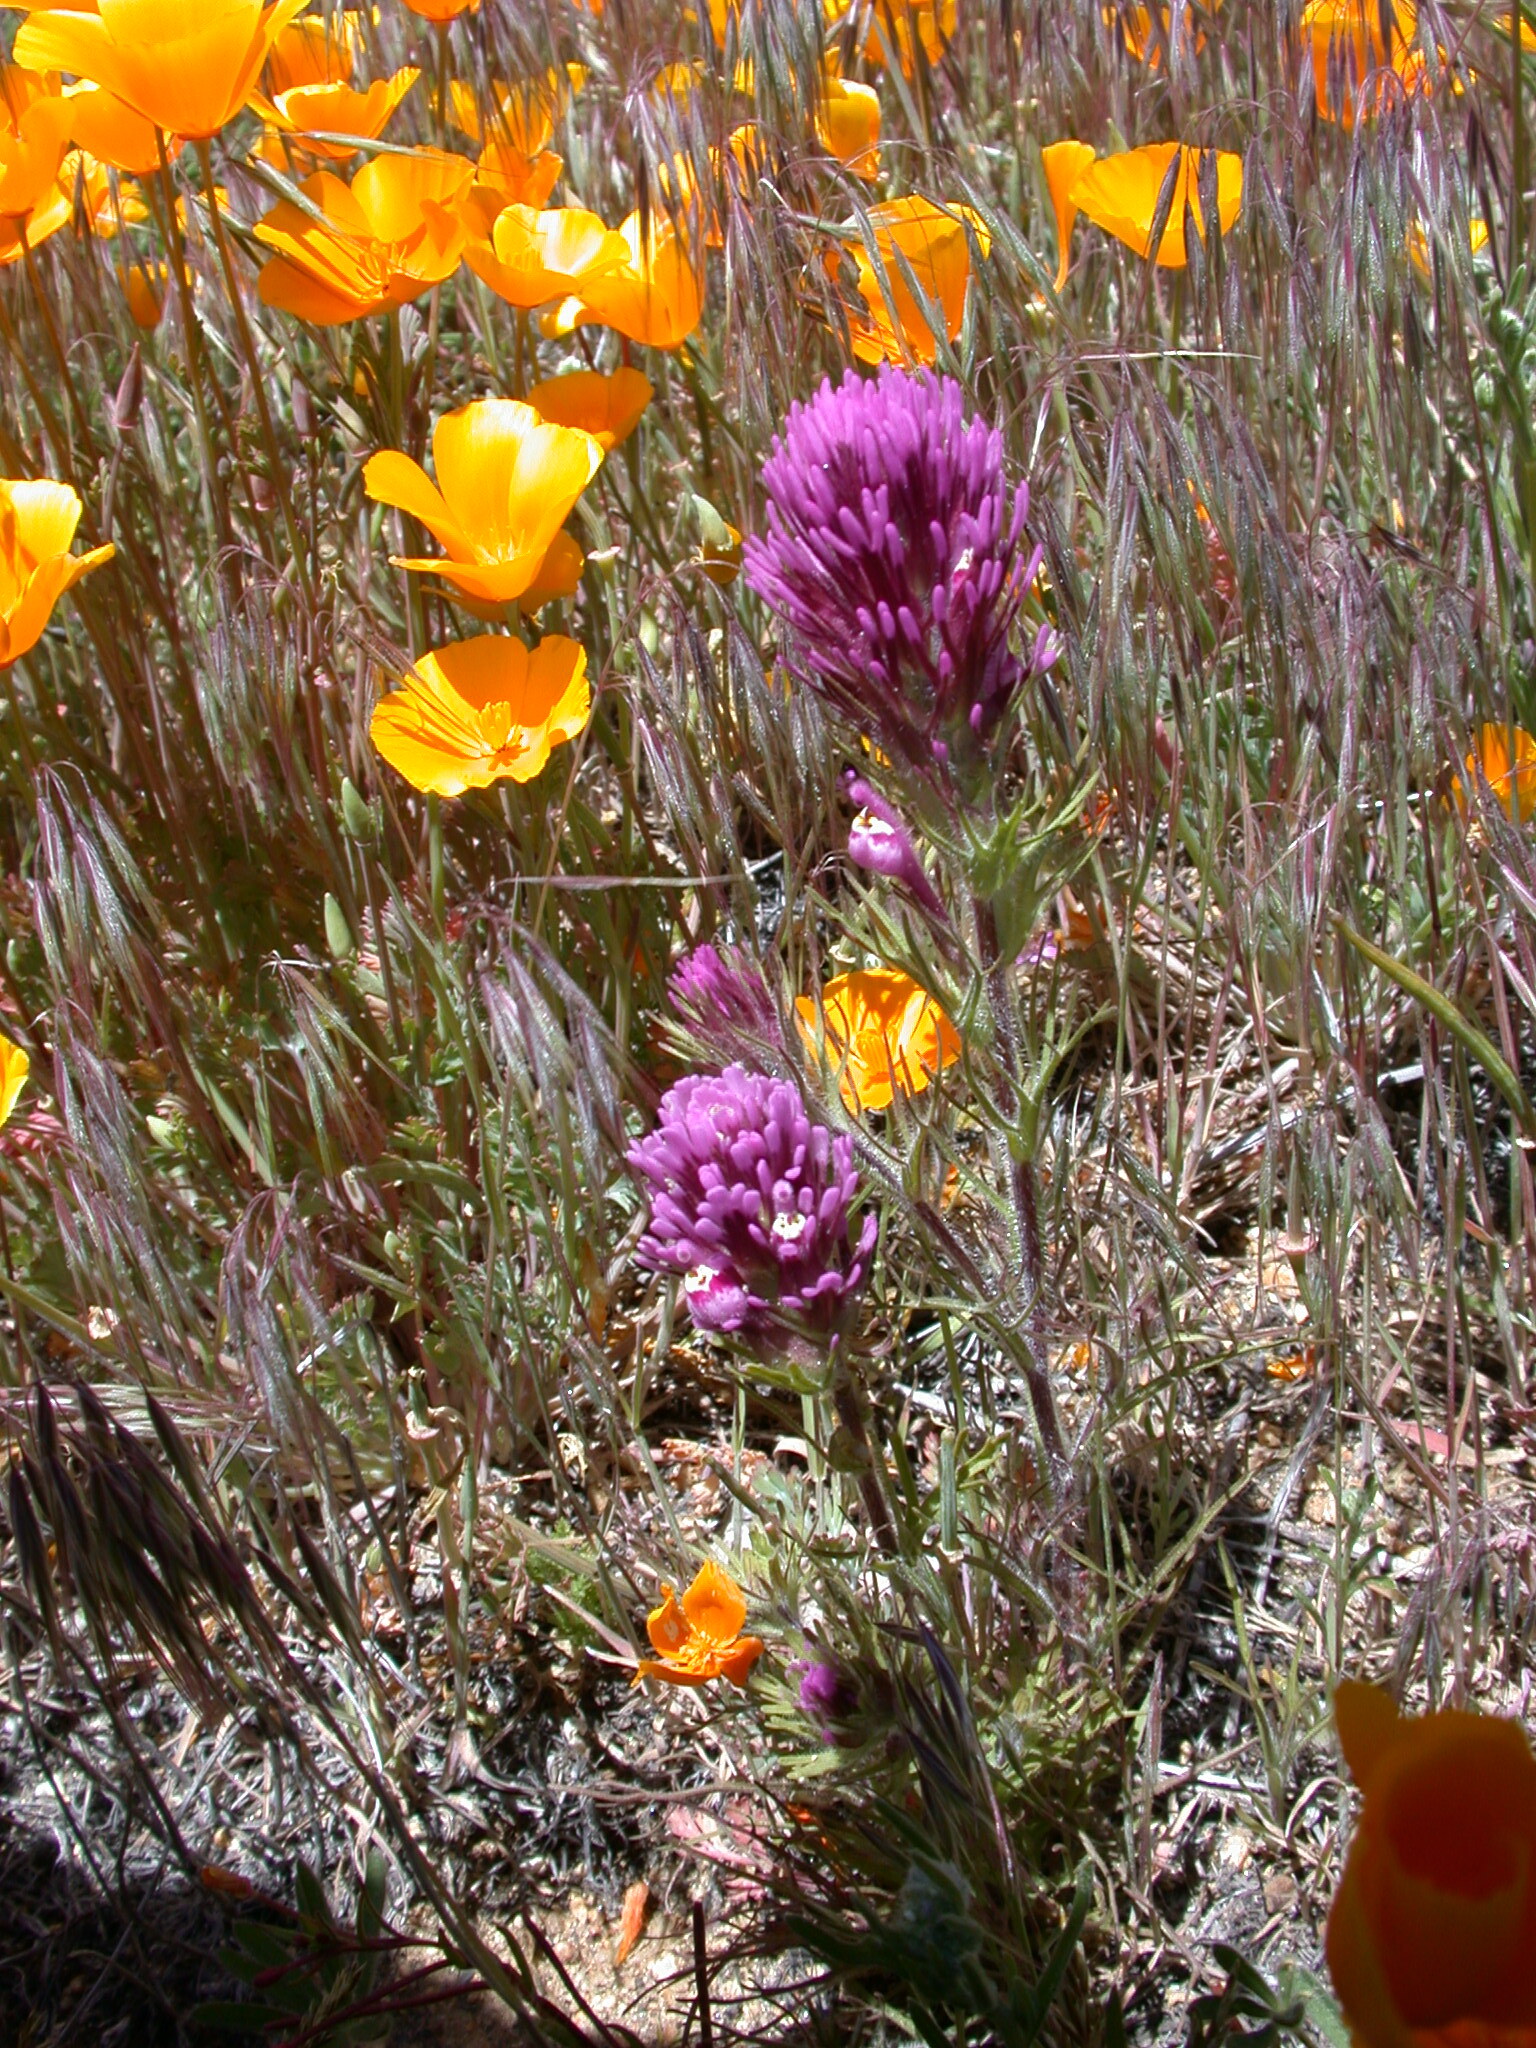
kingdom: Plantae
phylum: Tracheophyta
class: Magnoliopsida
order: Lamiales
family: Orobanchaceae
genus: Castilleja
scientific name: Castilleja exserta
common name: Purple owl-clover
